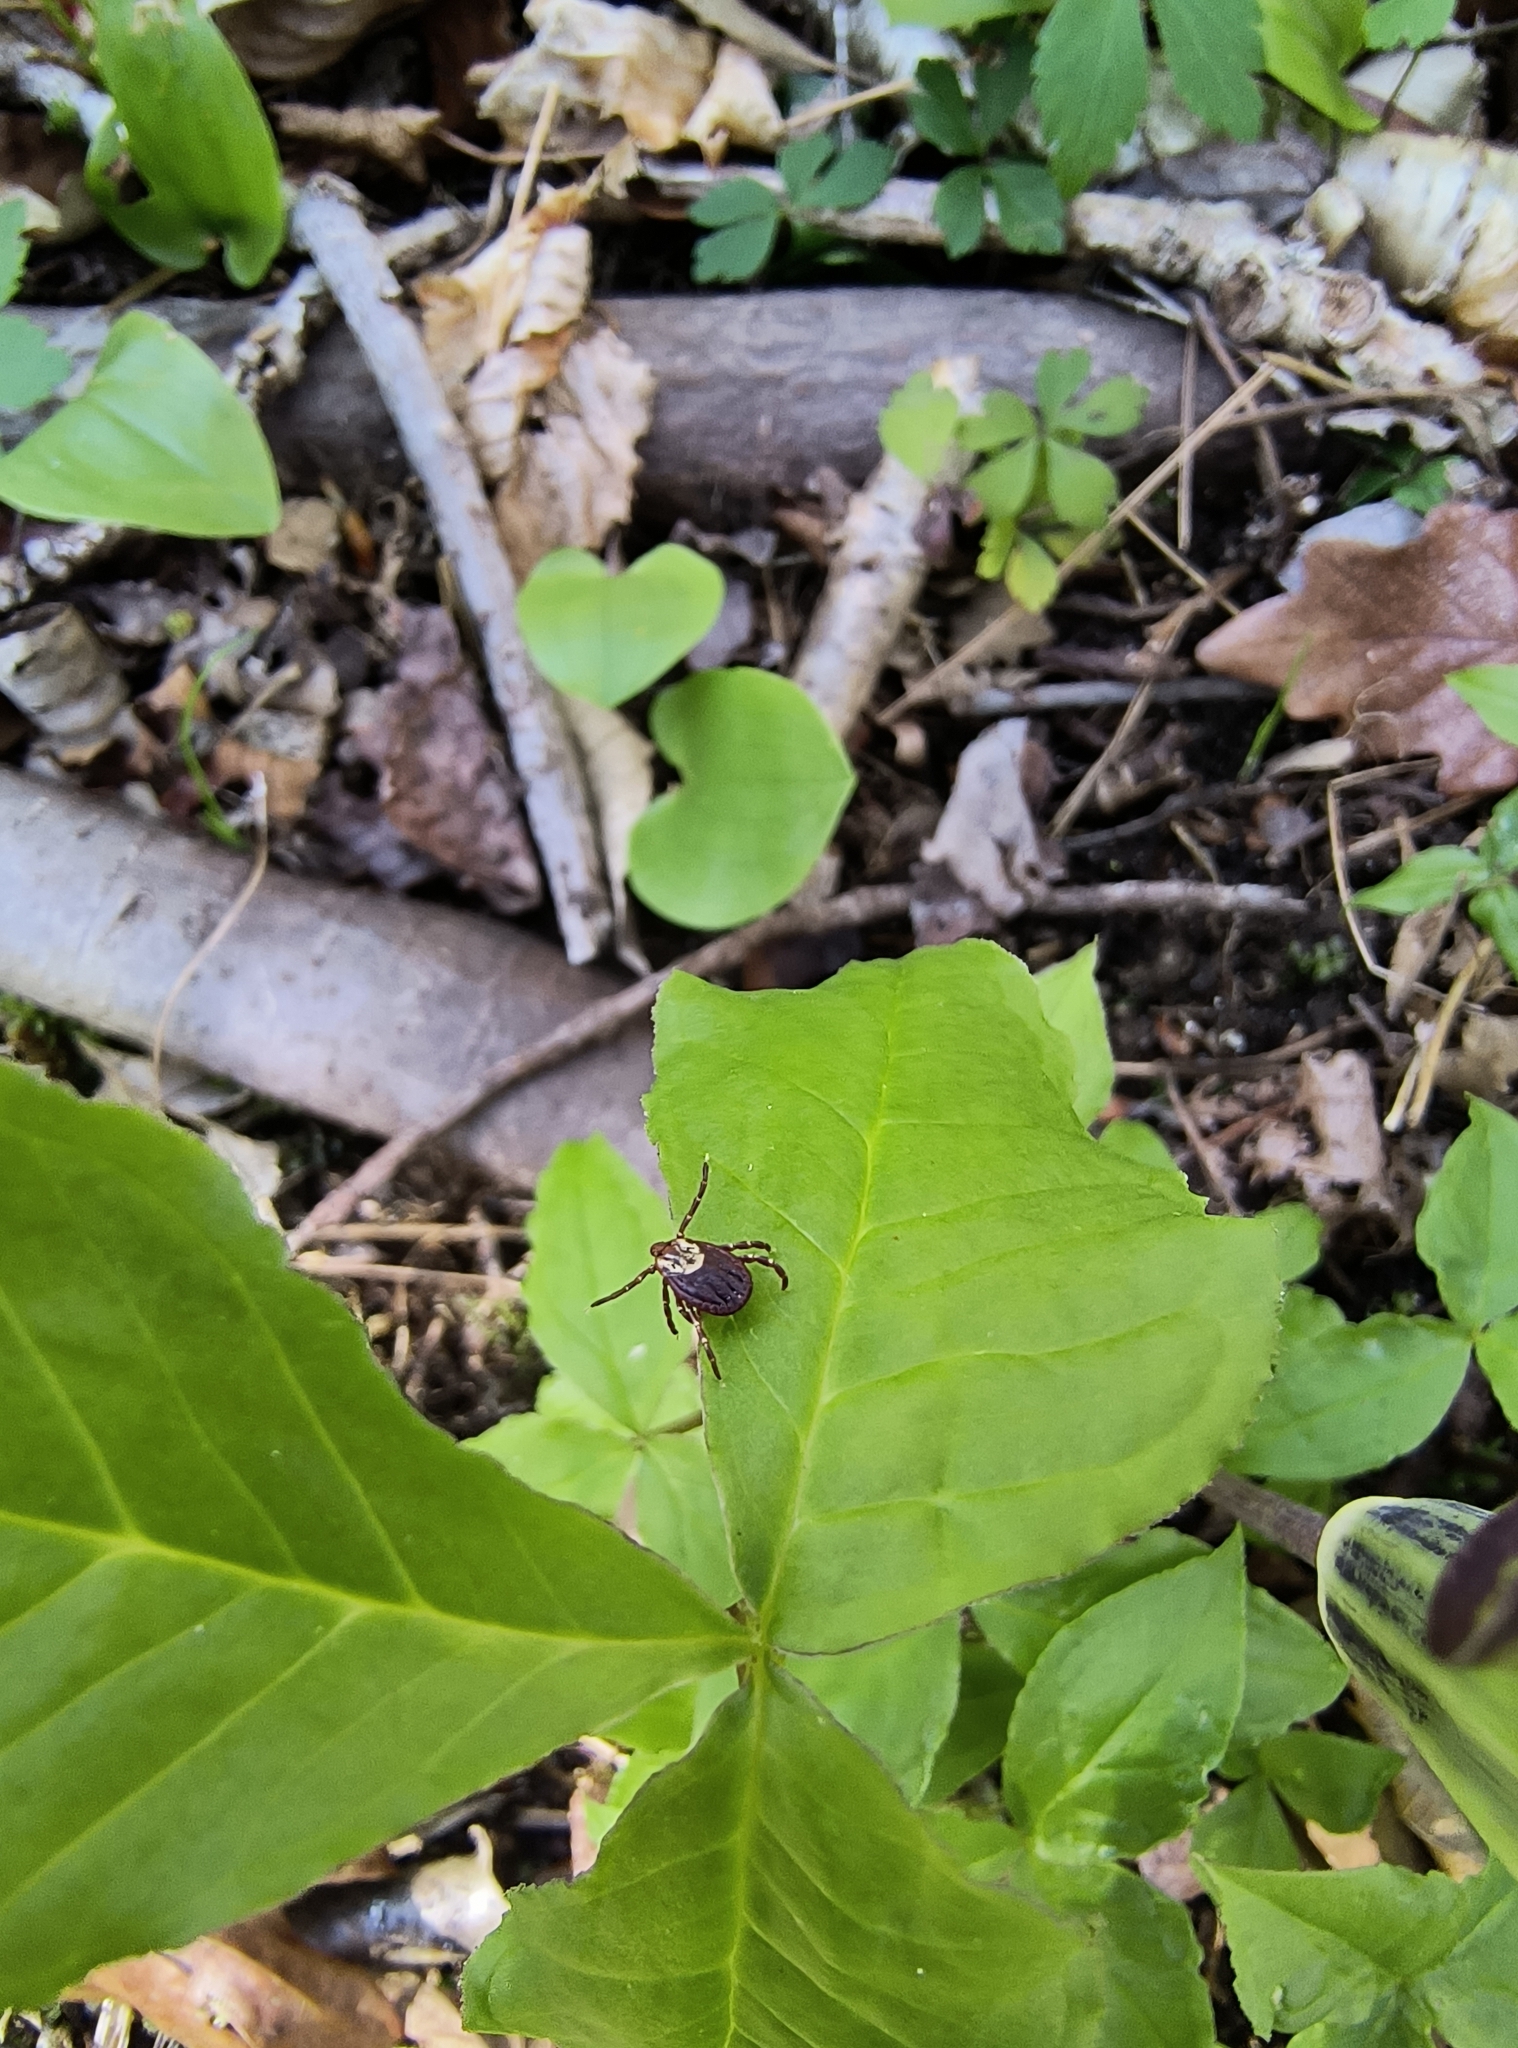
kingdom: Animalia
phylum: Arthropoda
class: Arachnida
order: Ixodida
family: Ixodidae
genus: Dermacentor
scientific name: Dermacentor variabilis
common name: American dog tick
